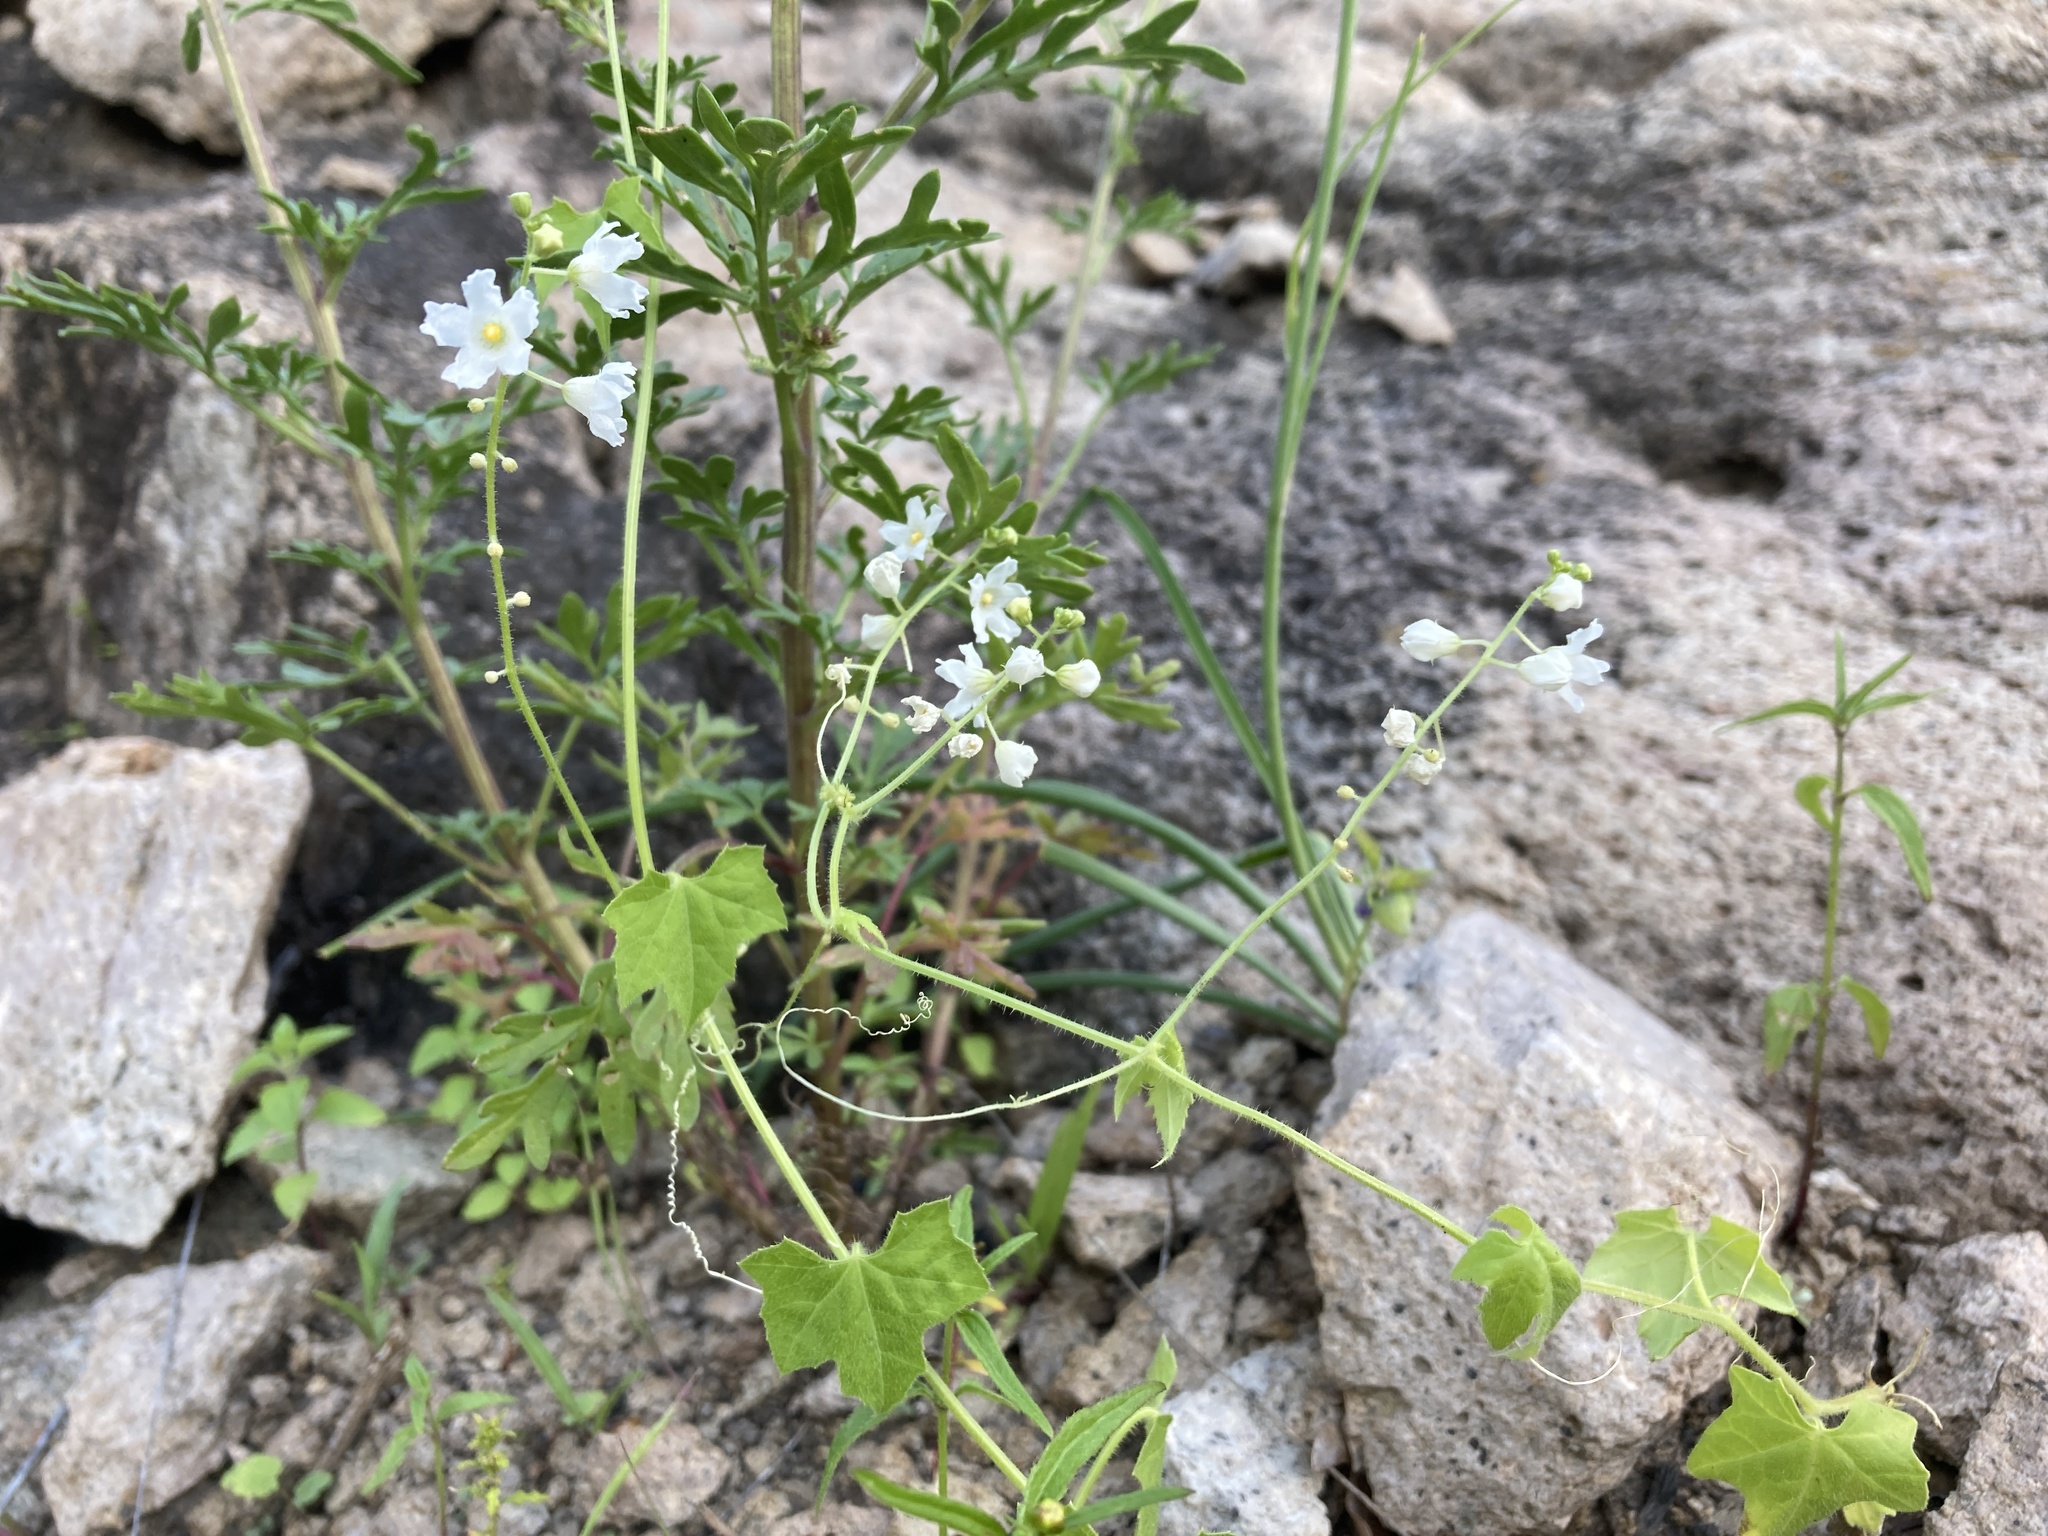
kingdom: Plantae
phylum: Tracheophyta
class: Magnoliopsida
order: Cucurbitales
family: Cucurbitaceae
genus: Echinopepon
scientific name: Echinopepon wrightii
